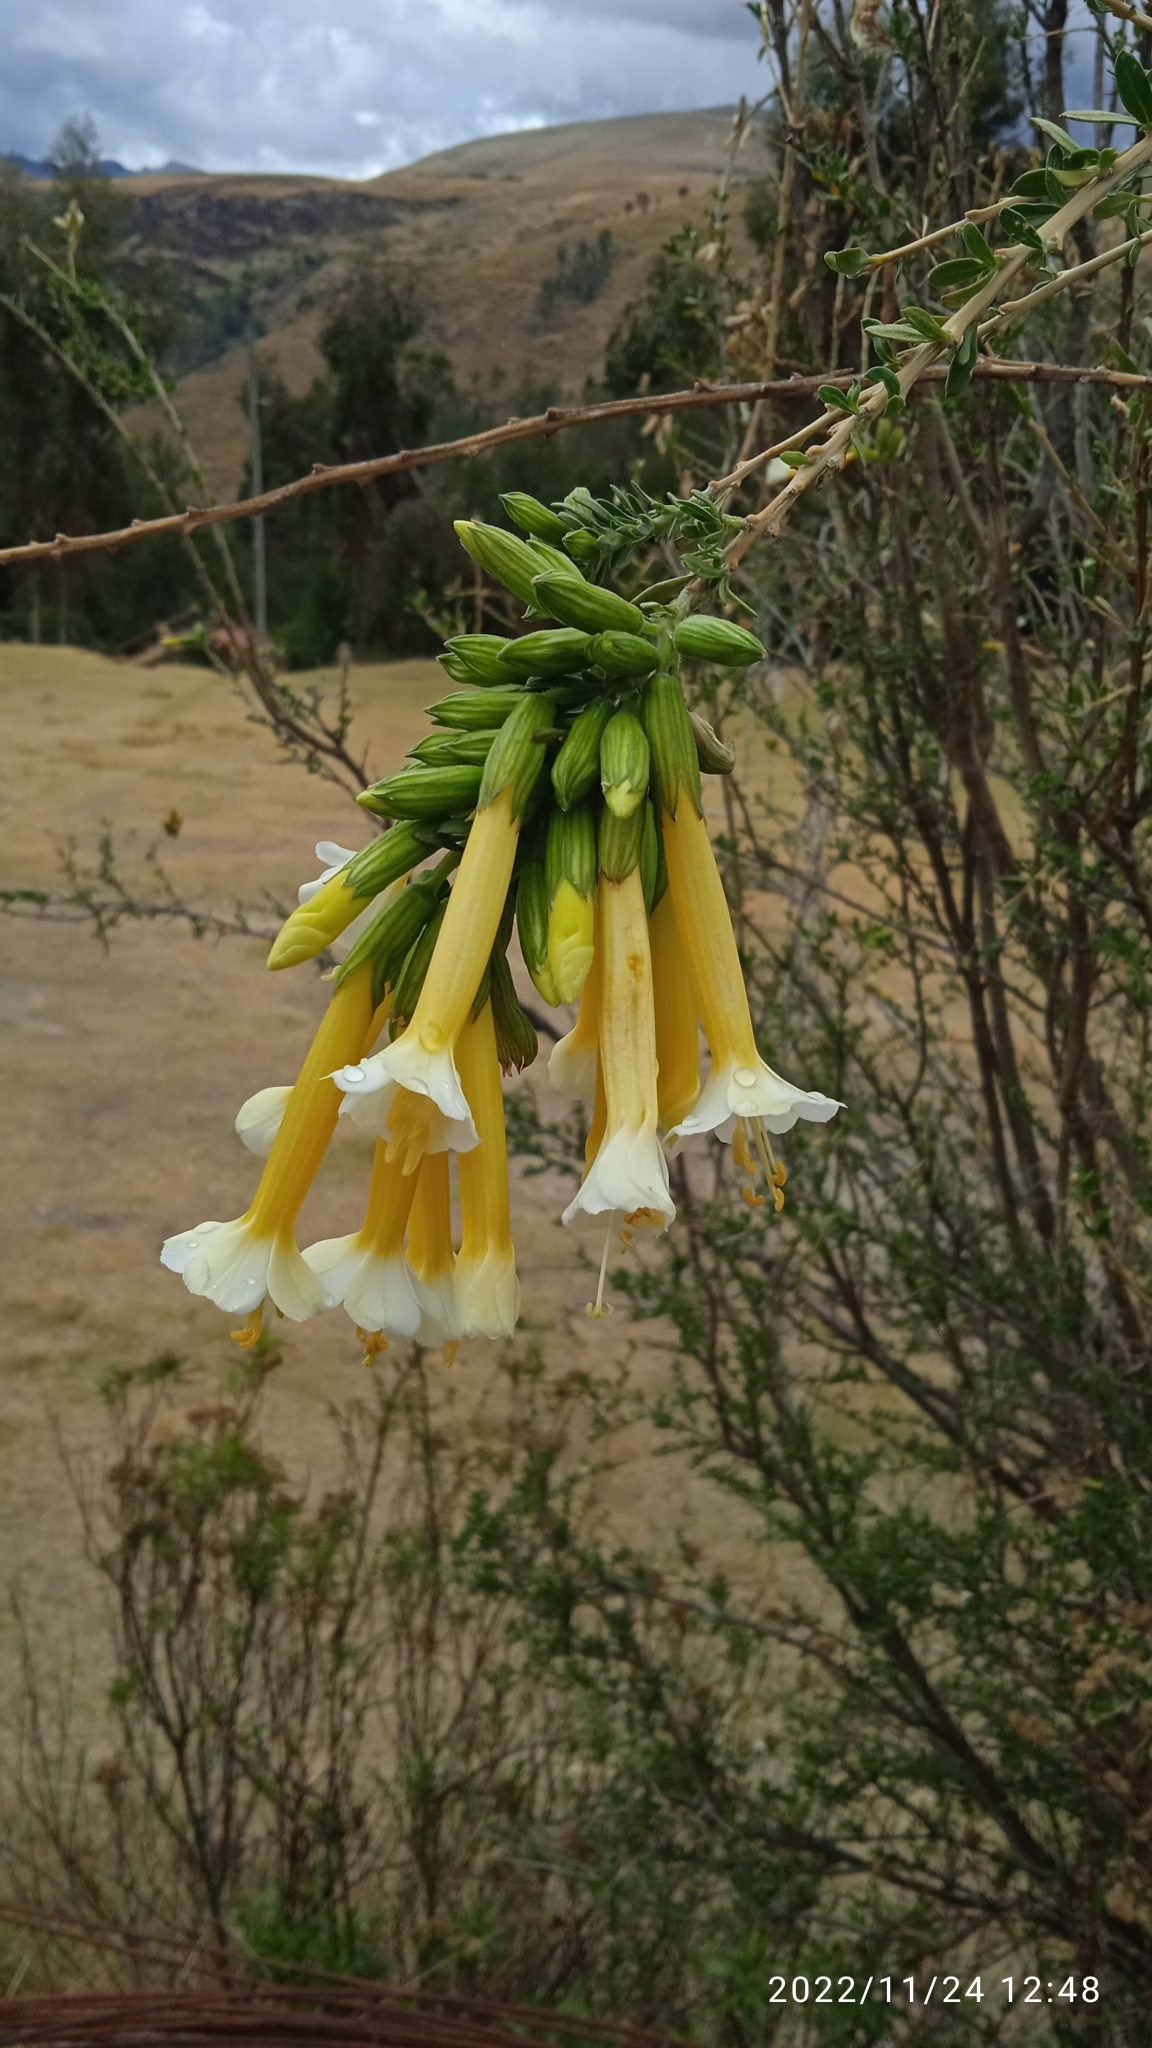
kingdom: Plantae
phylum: Tracheophyta
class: Magnoliopsida
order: Ericales
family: Polemoniaceae
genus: Cantua
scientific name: Cantua buxifolia
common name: Sacred-flower-of-the-incas
